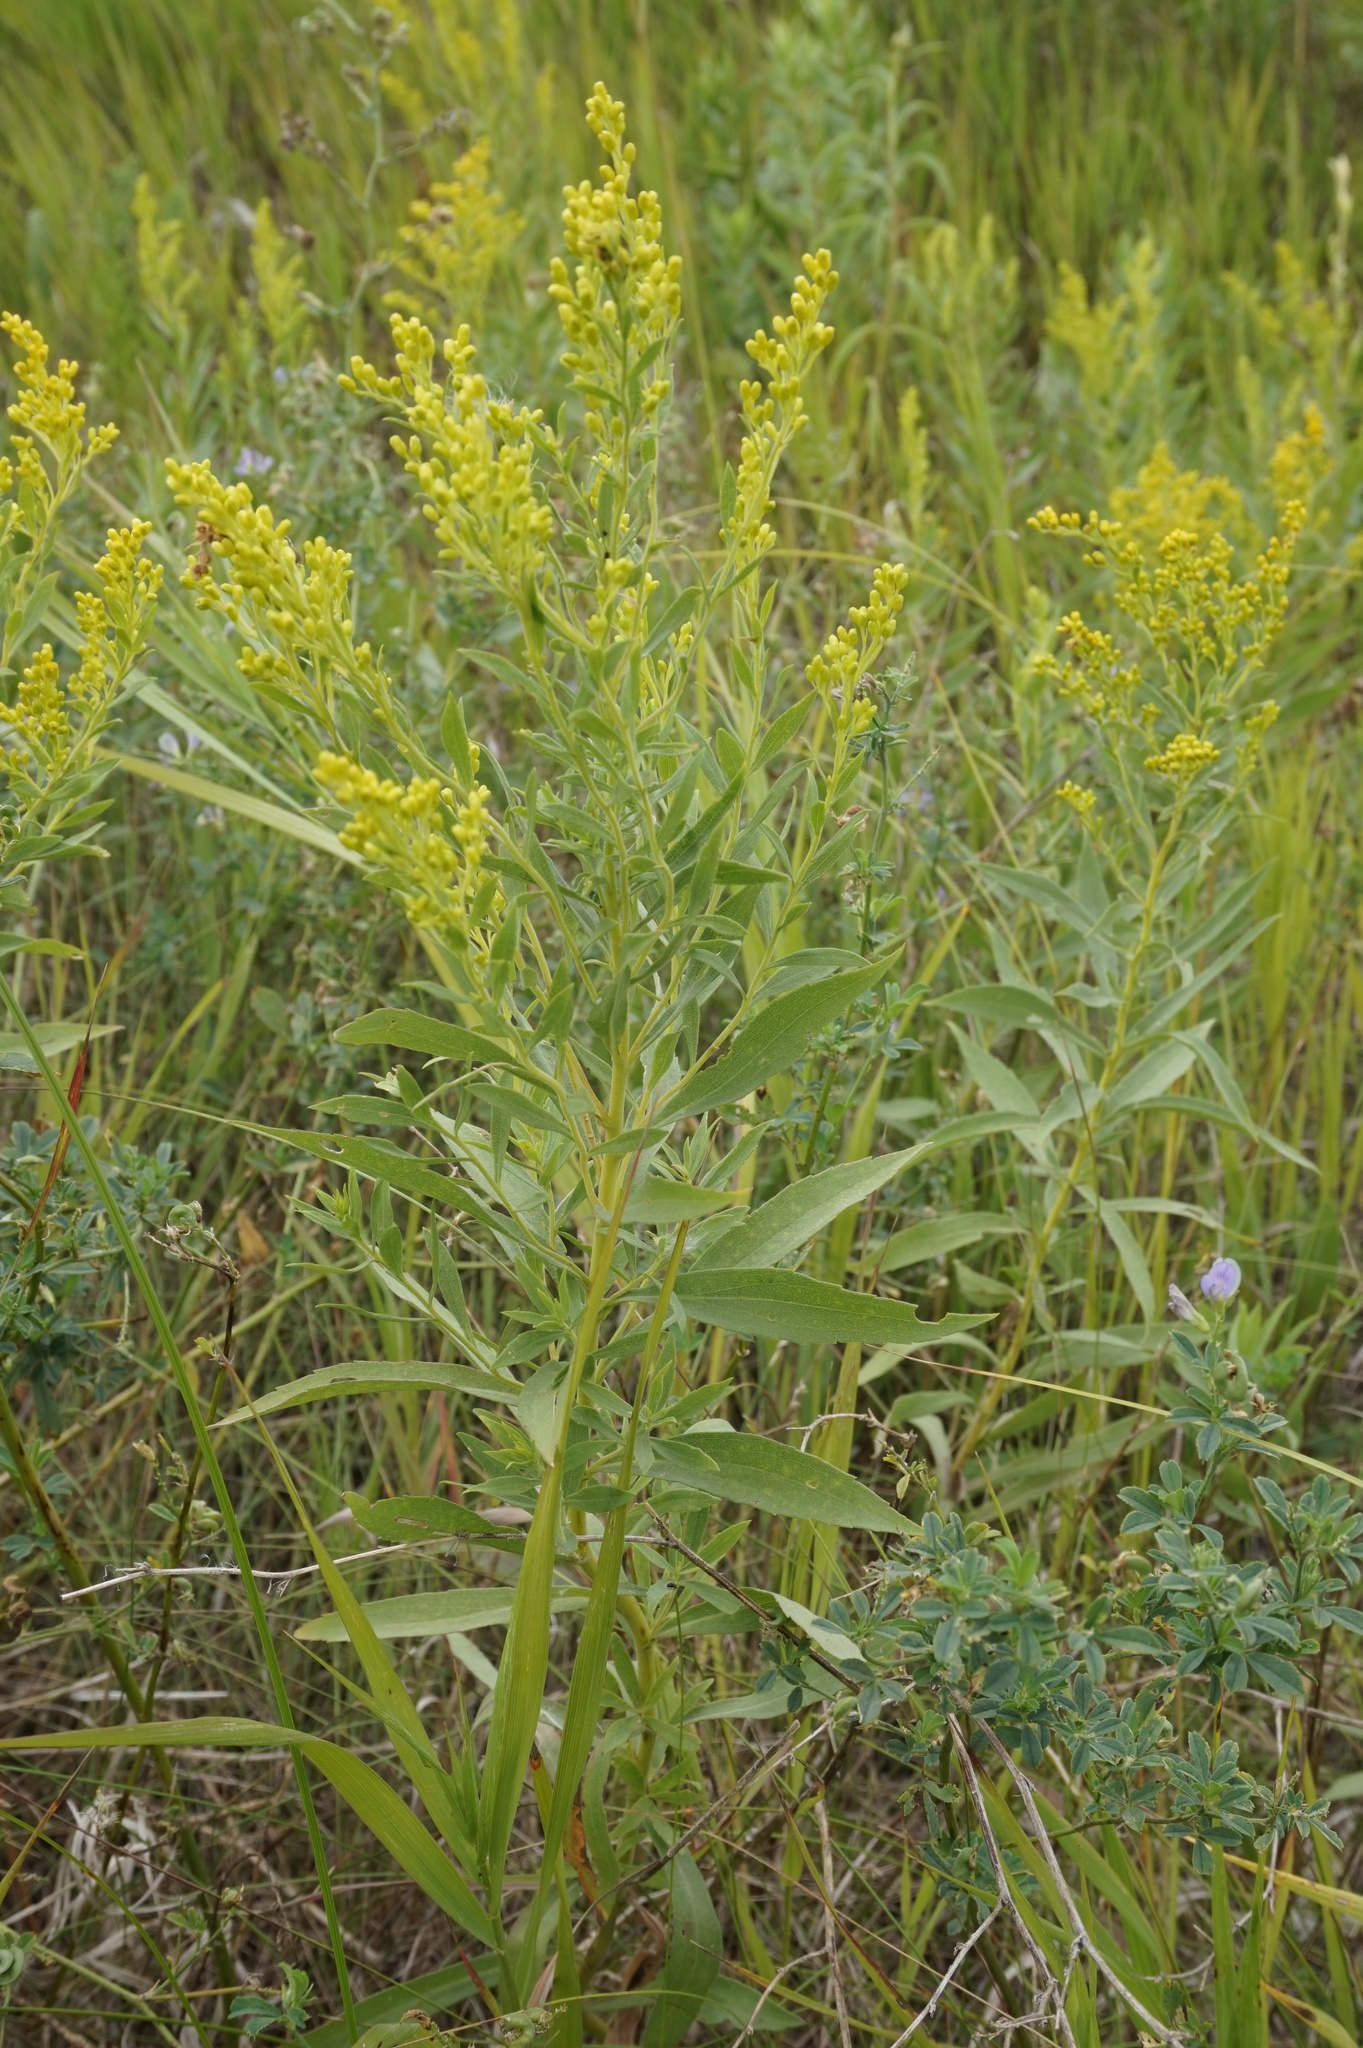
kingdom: Plantae
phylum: Tracheophyta
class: Magnoliopsida
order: Asterales
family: Asteraceae
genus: Solidago
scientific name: Solidago canadensis
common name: Canada goldenrod
